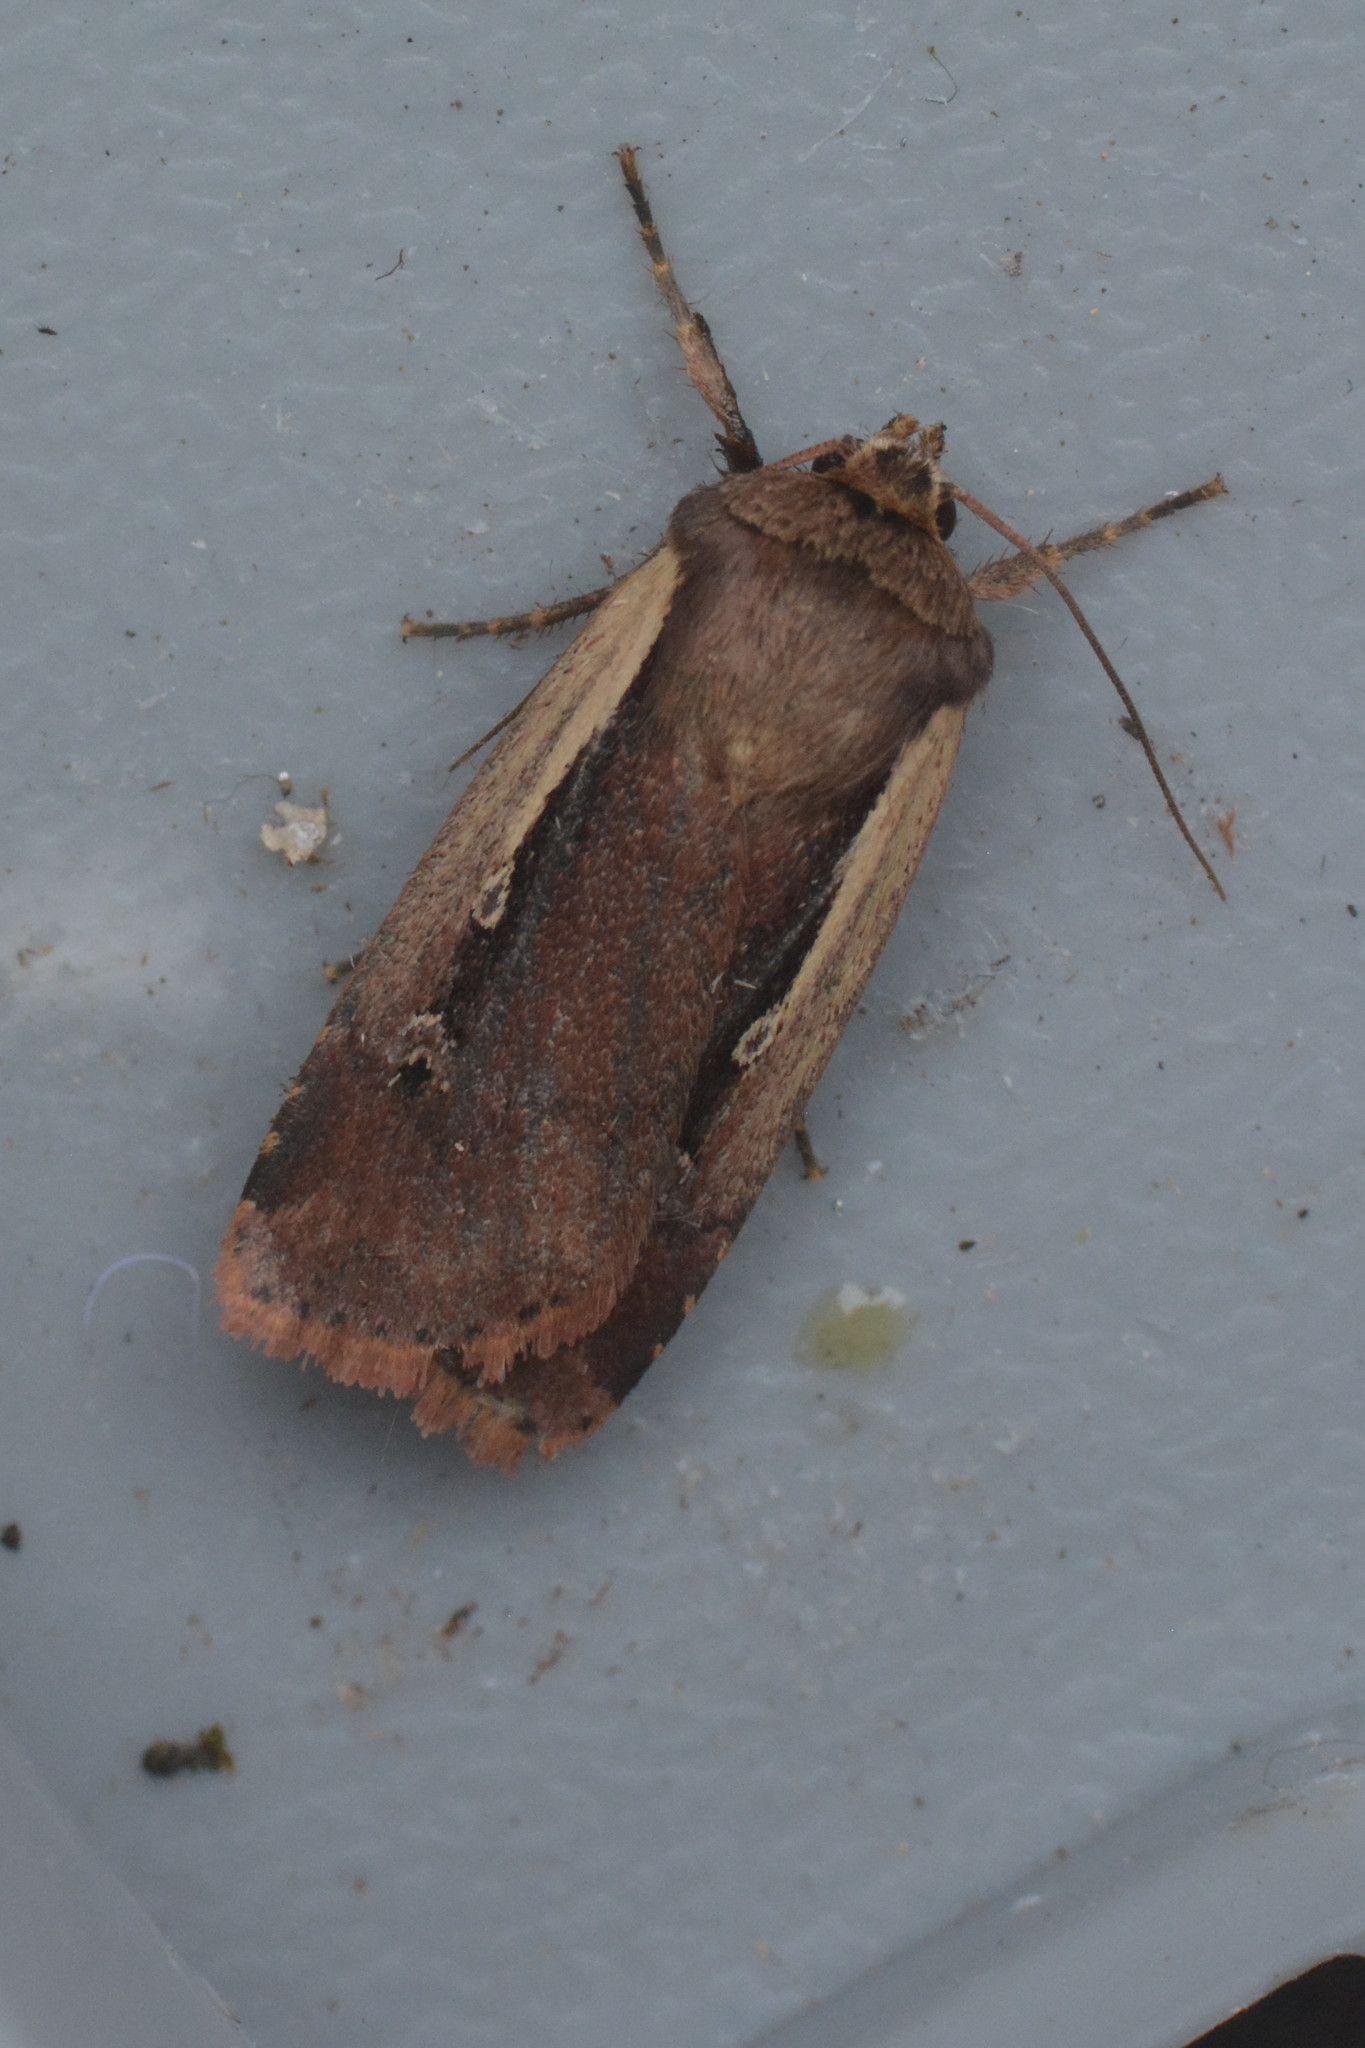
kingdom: Animalia
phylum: Arthropoda
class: Insecta
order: Lepidoptera
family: Noctuidae
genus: Ochropleura
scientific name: Ochropleura plecta
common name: Flame shoulder
